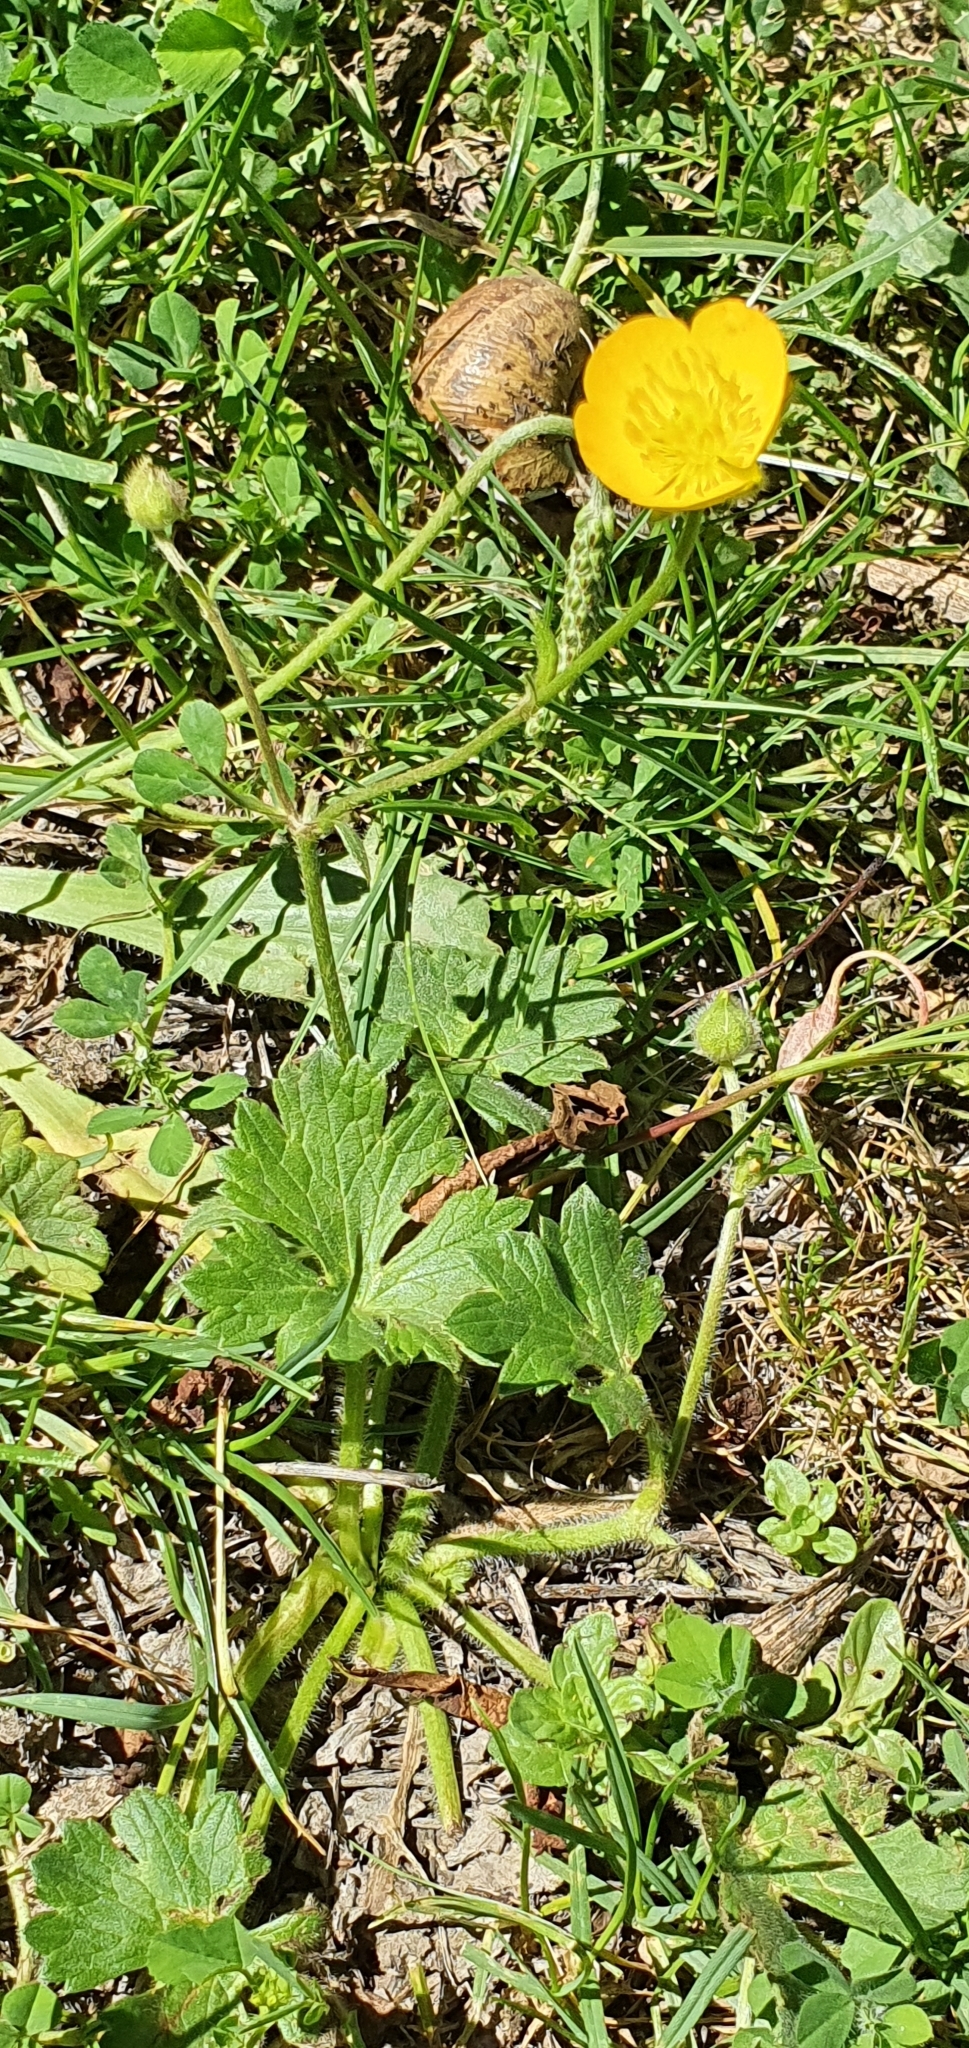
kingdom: Plantae
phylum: Tracheophyta
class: Magnoliopsida
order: Ranunculales
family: Ranunculaceae
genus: Ranunculus
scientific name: Ranunculus macrophyllus
